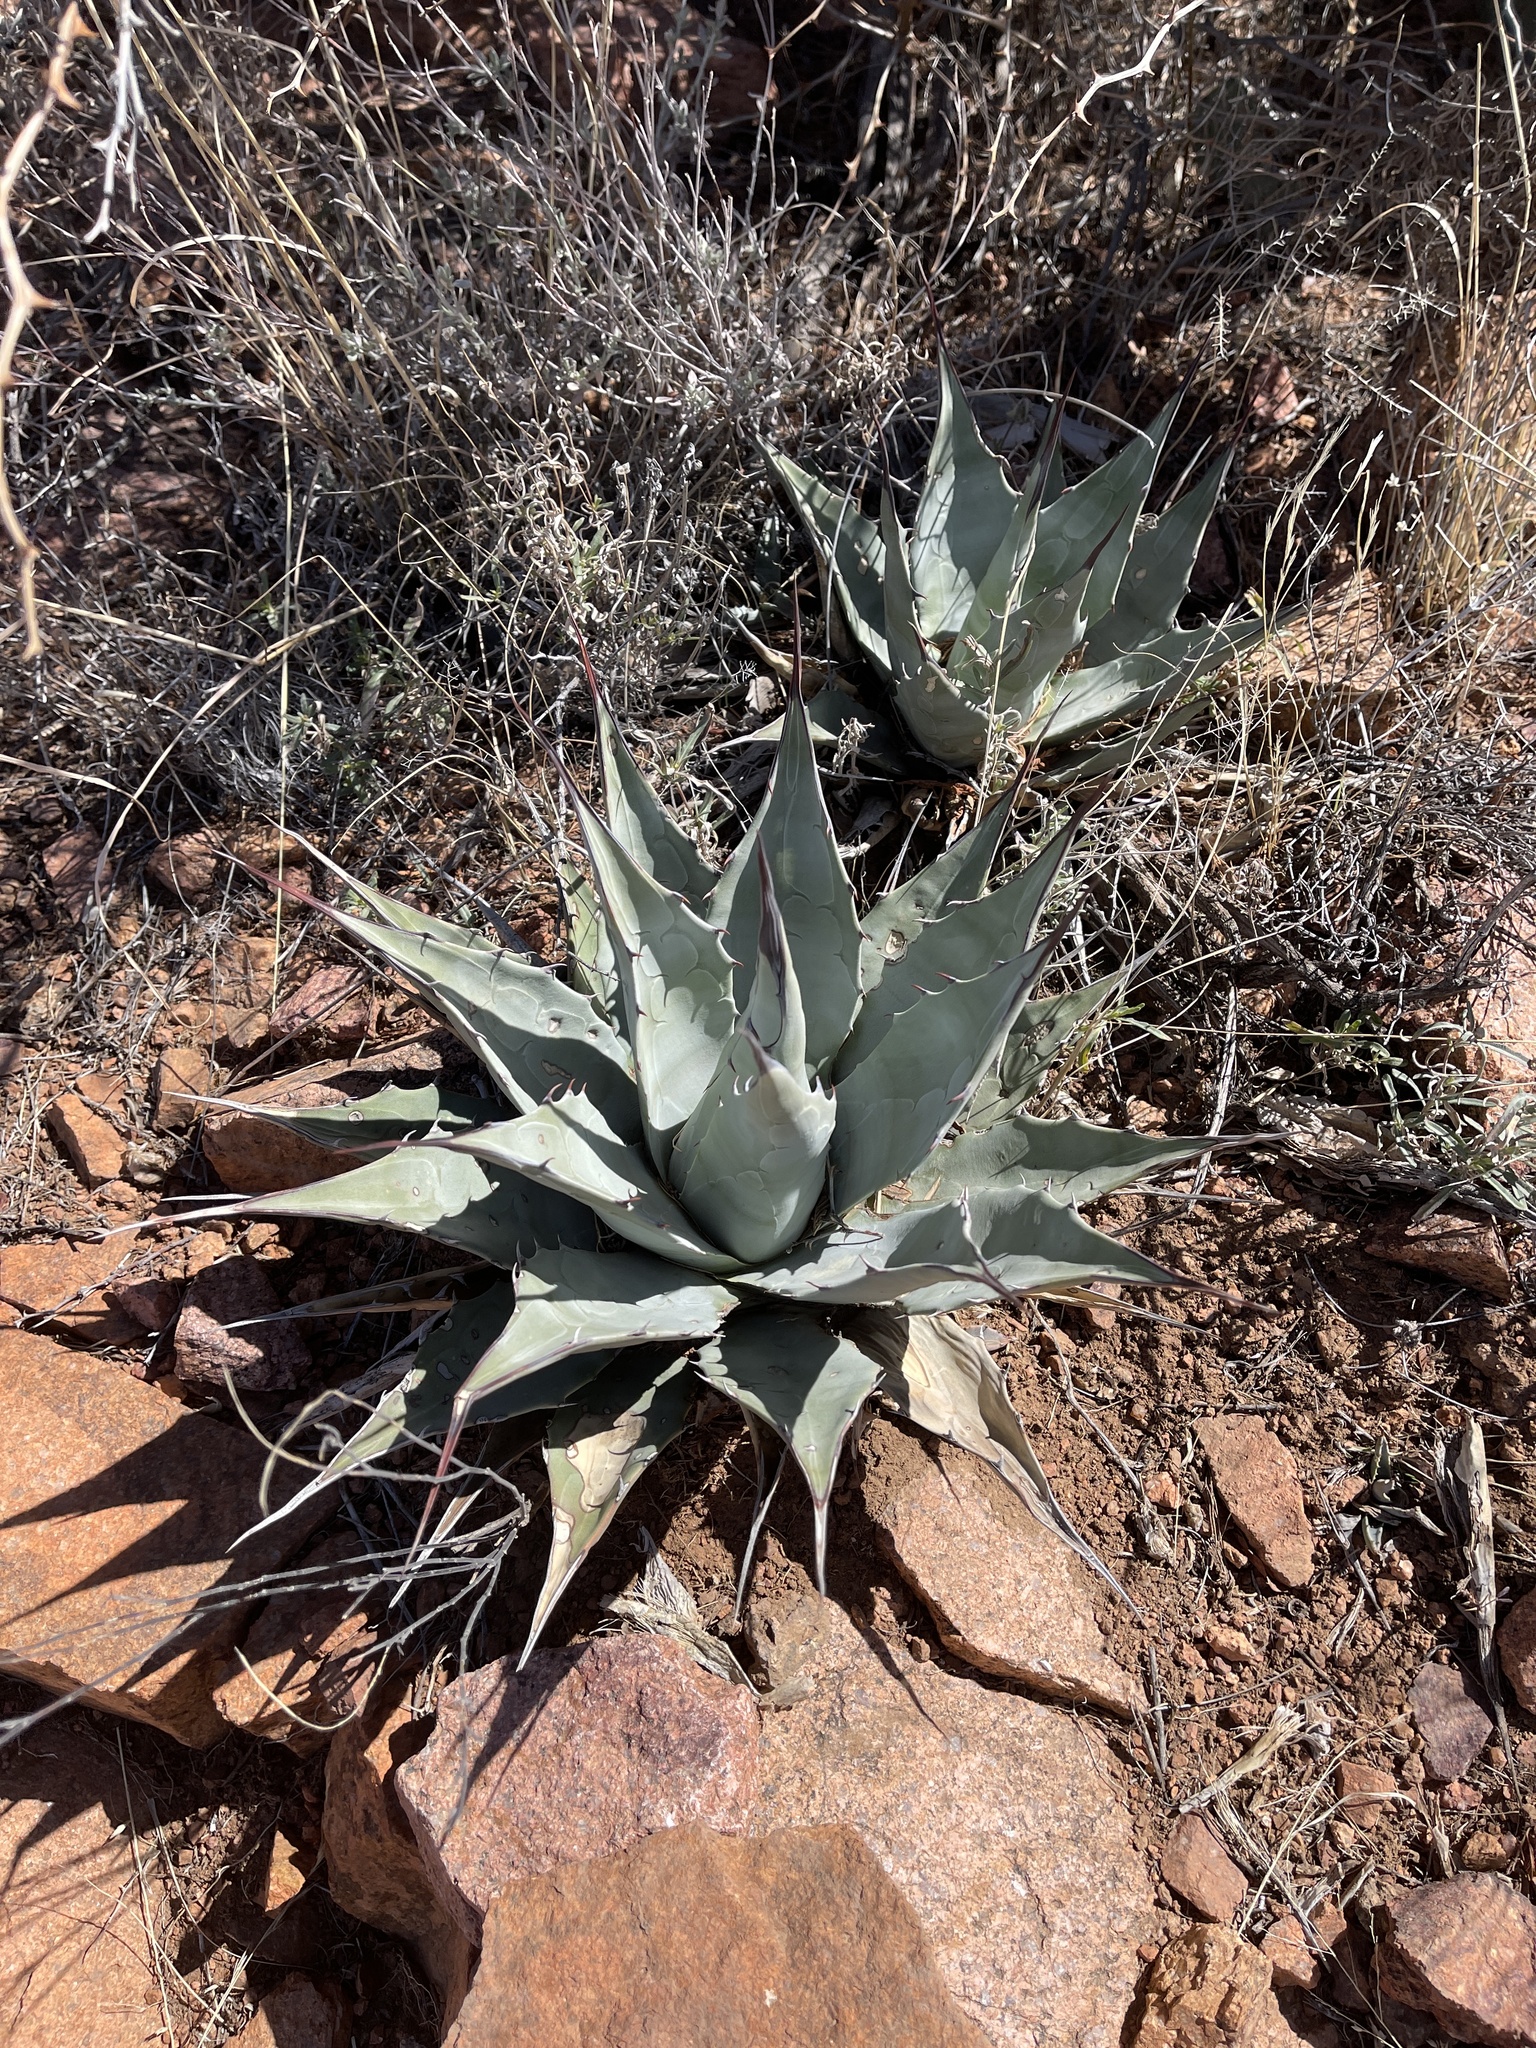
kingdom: Plantae
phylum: Tracheophyta
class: Liliopsida
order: Asparagales
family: Asparagaceae
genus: Agave
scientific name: Agave parryi
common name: Parry's agave
